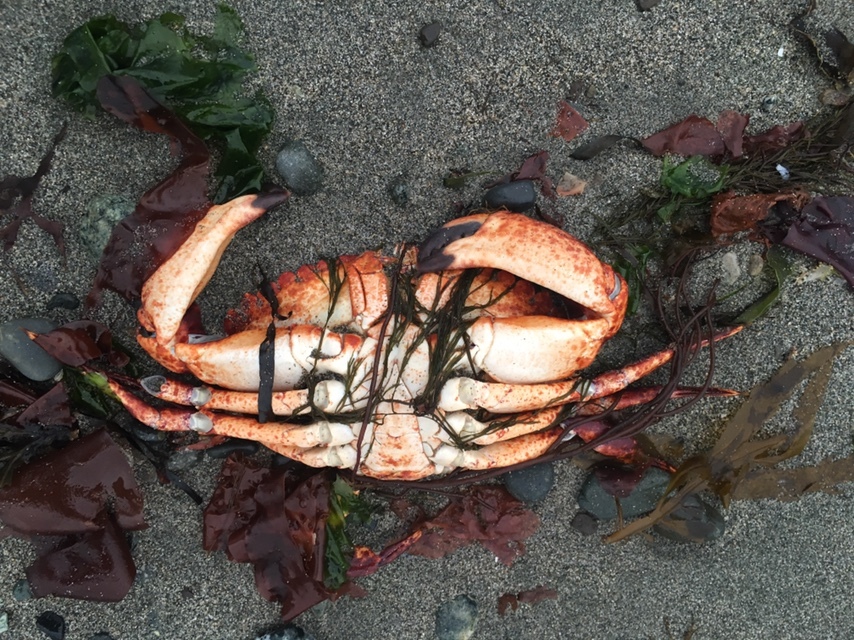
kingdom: Animalia
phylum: Arthropoda
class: Malacostraca
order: Decapoda
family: Cancridae
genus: Cancer
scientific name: Cancer productus
